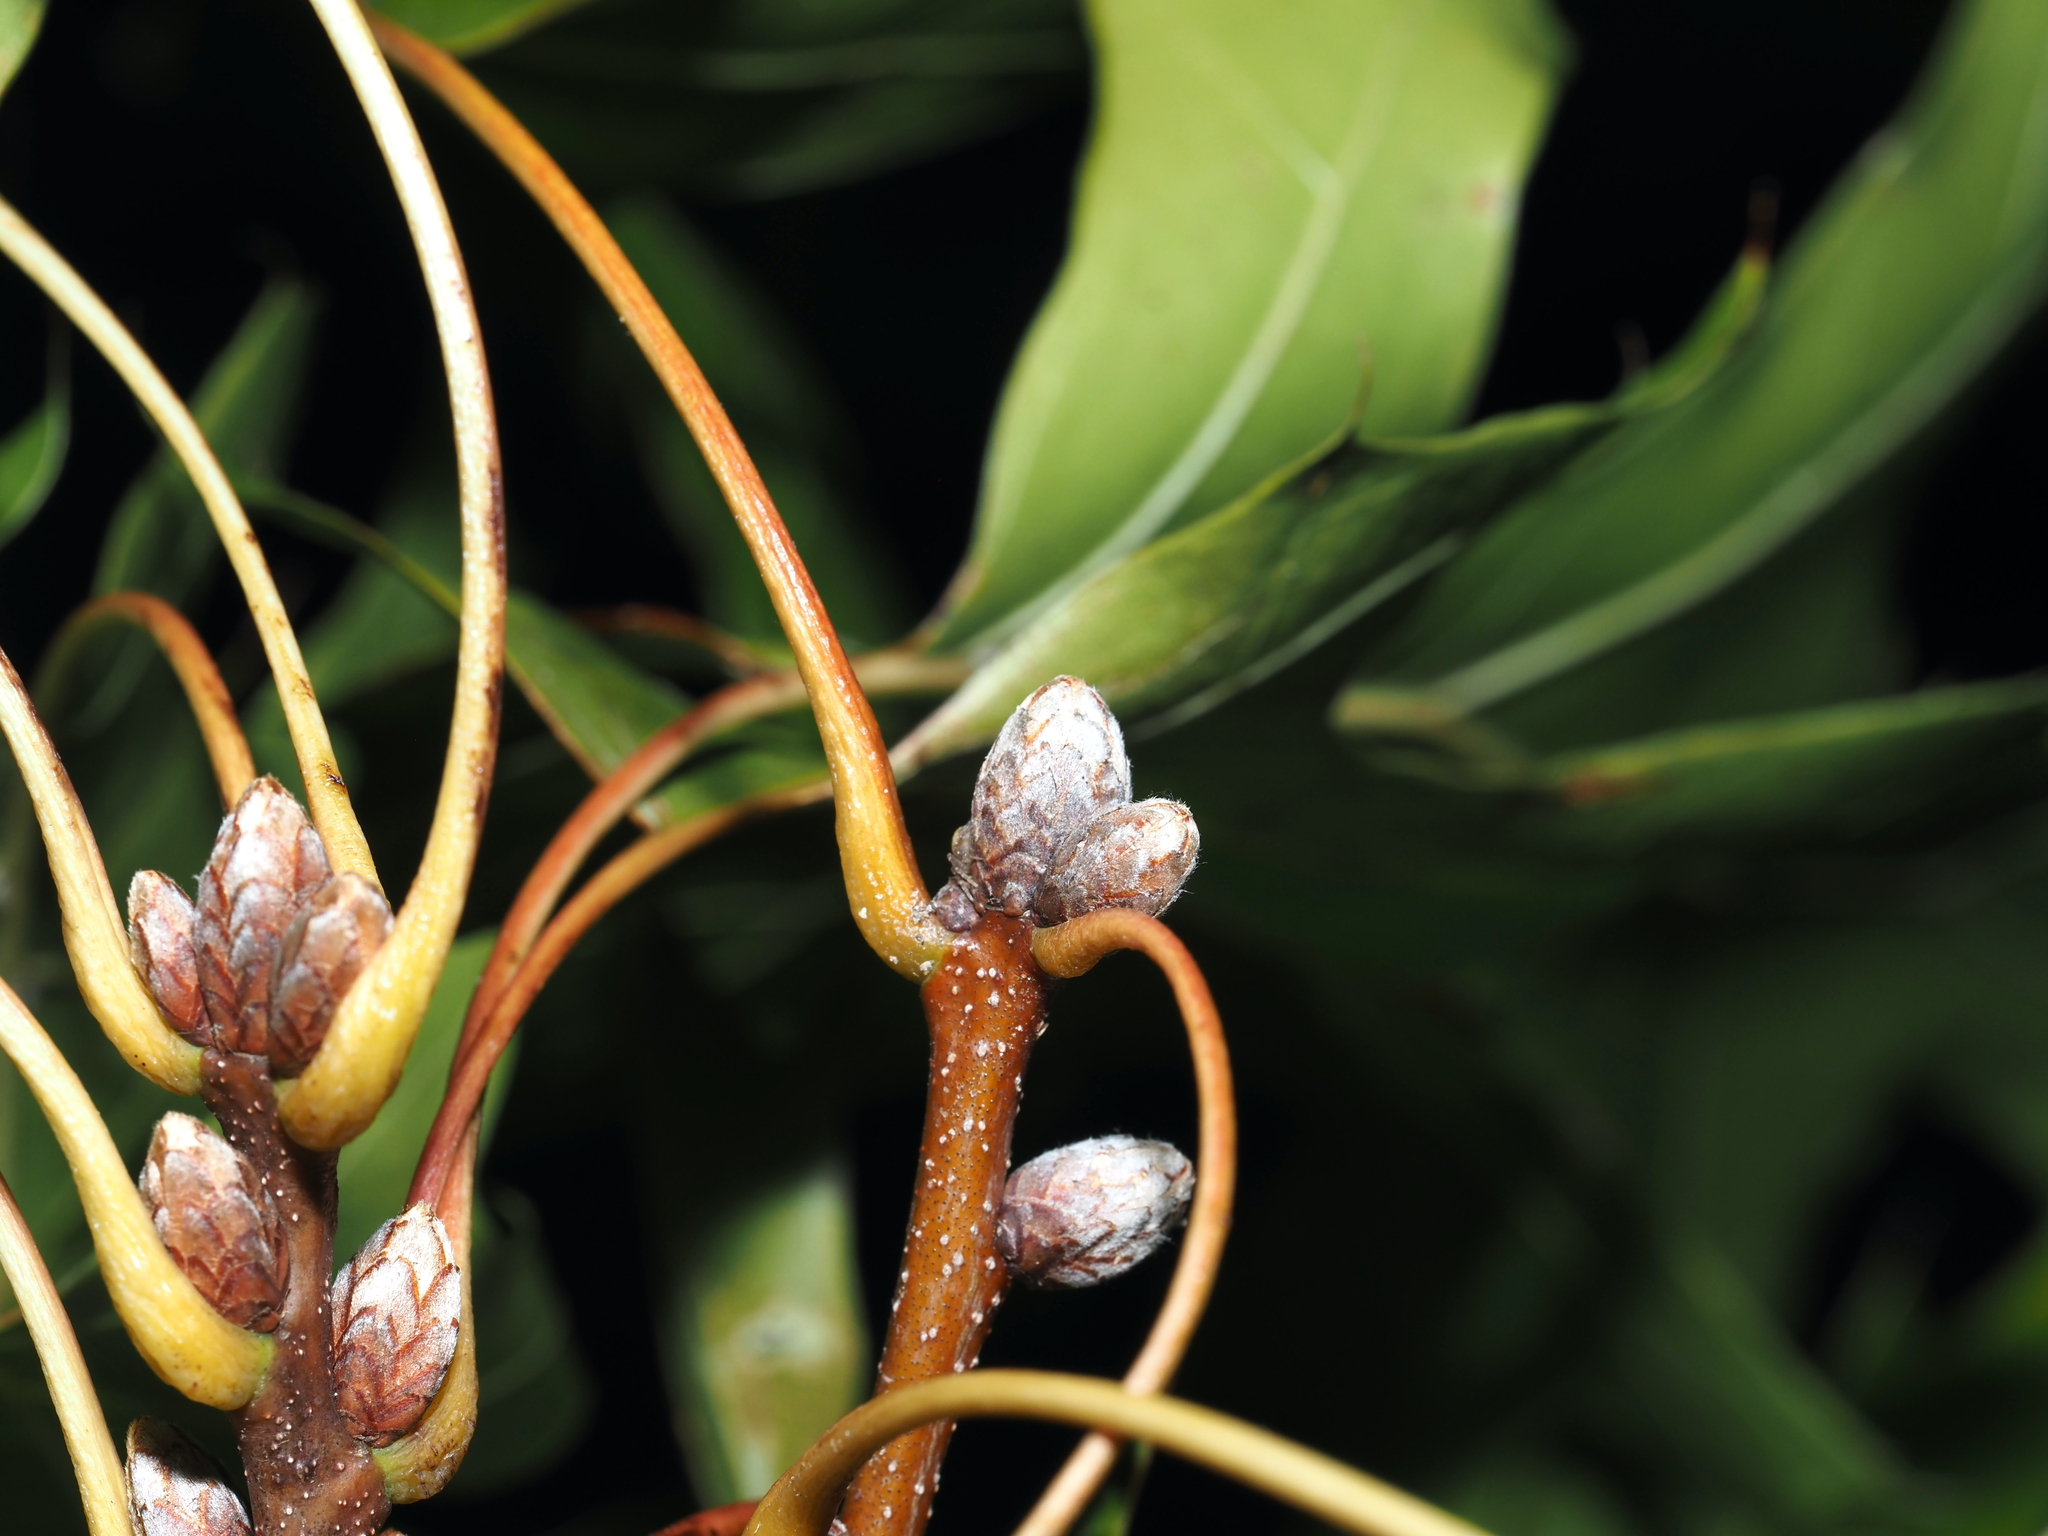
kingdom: Plantae
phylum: Tracheophyta
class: Magnoliopsida
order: Fagales
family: Fagaceae
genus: Quercus
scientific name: Quercus coccinea
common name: Scarlet oak
